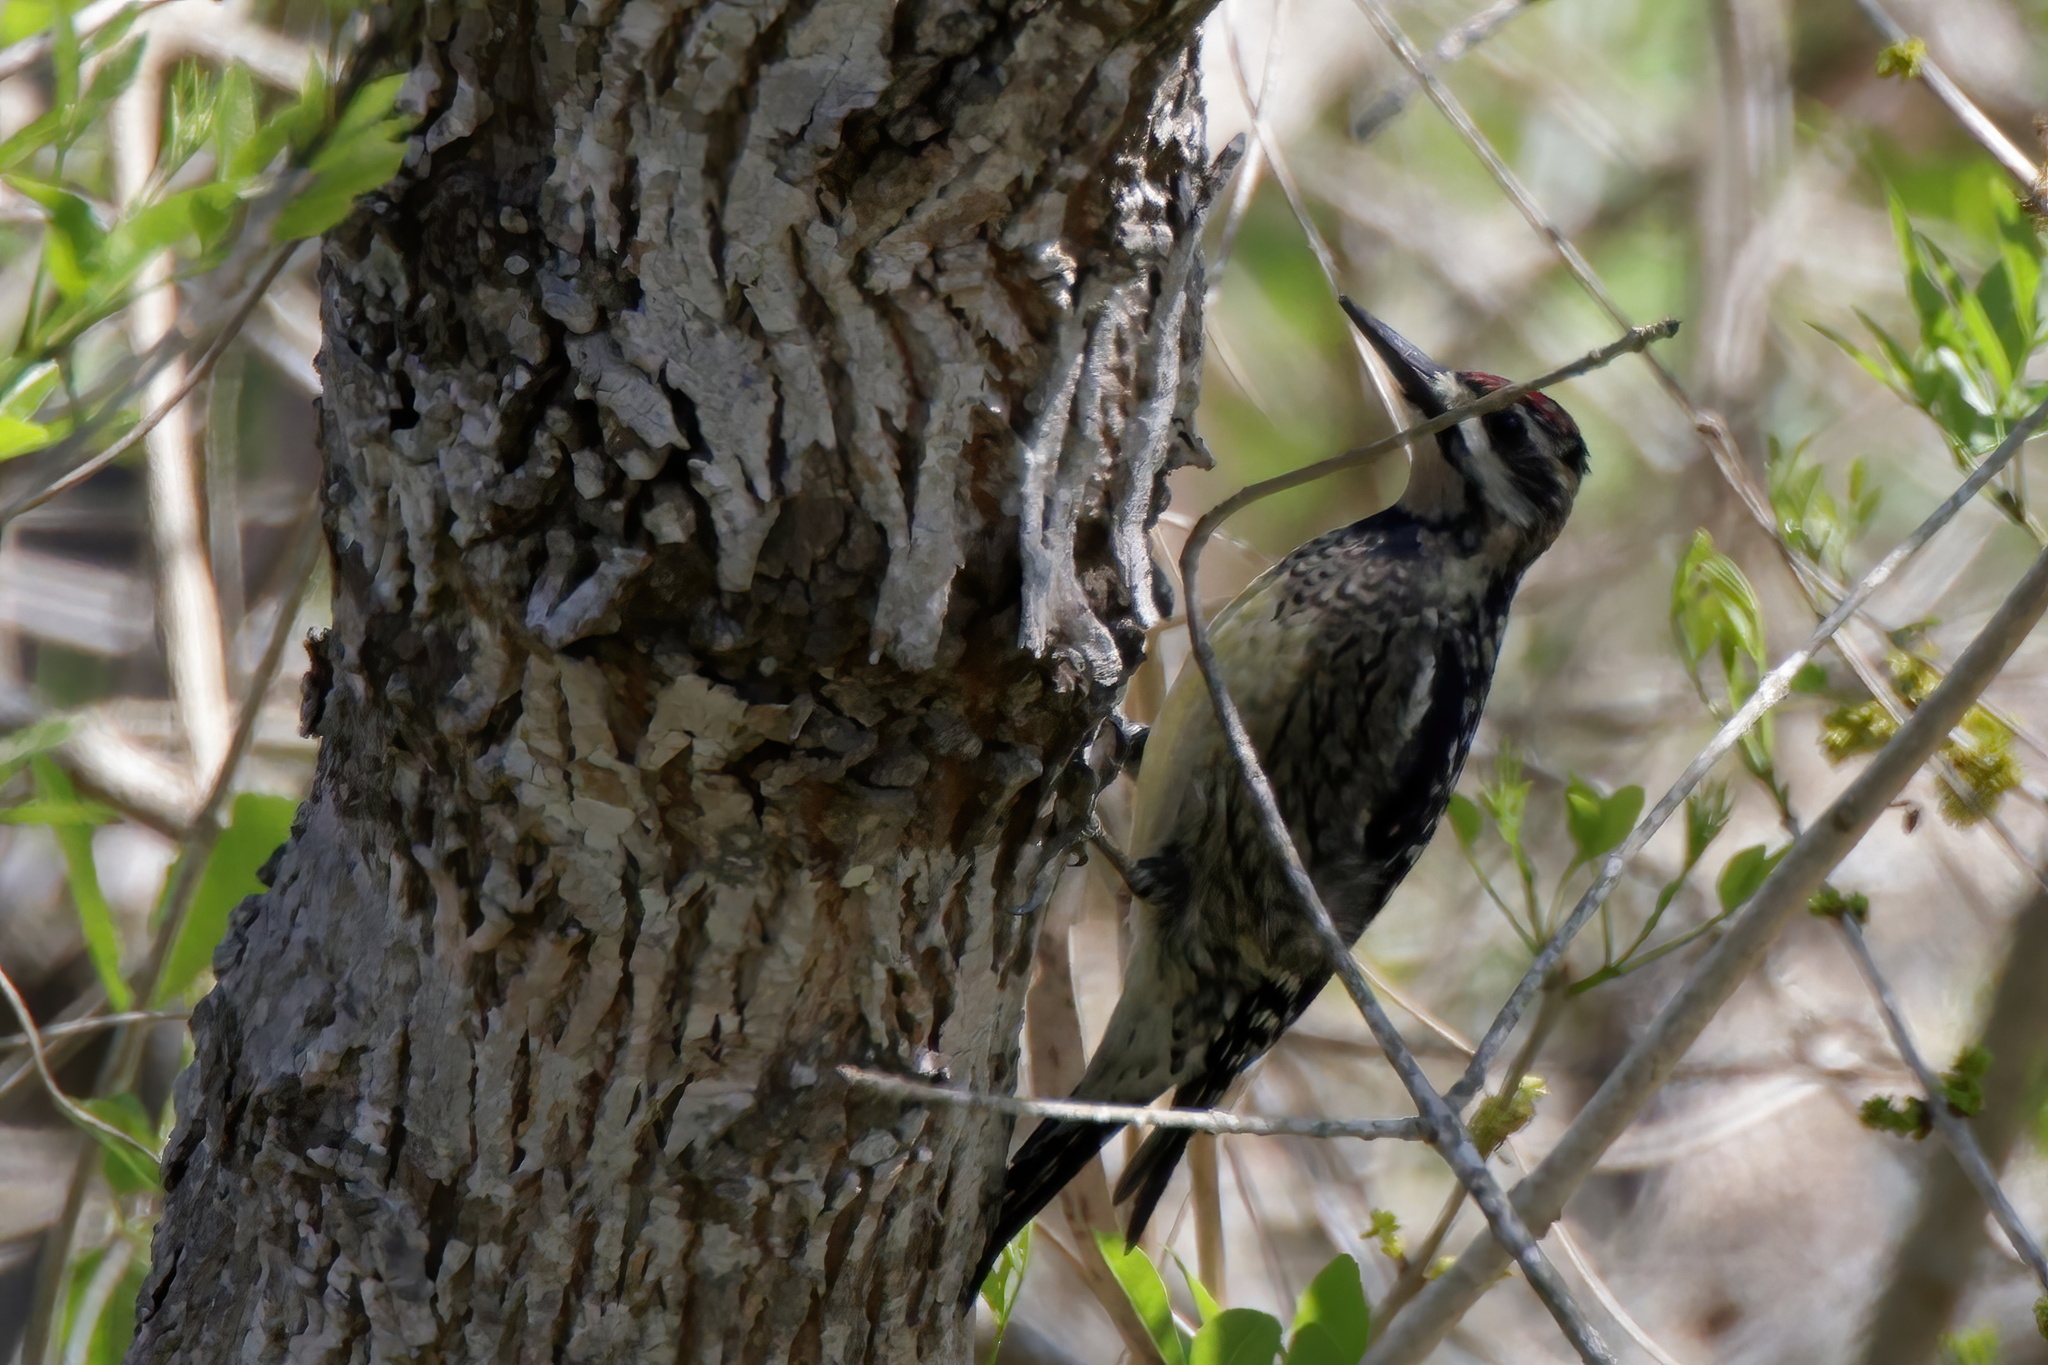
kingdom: Animalia
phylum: Chordata
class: Aves
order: Piciformes
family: Picidae
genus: Sphyrapicus
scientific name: Sphyrapicus varius
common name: Yellow-bellied sapsucker
